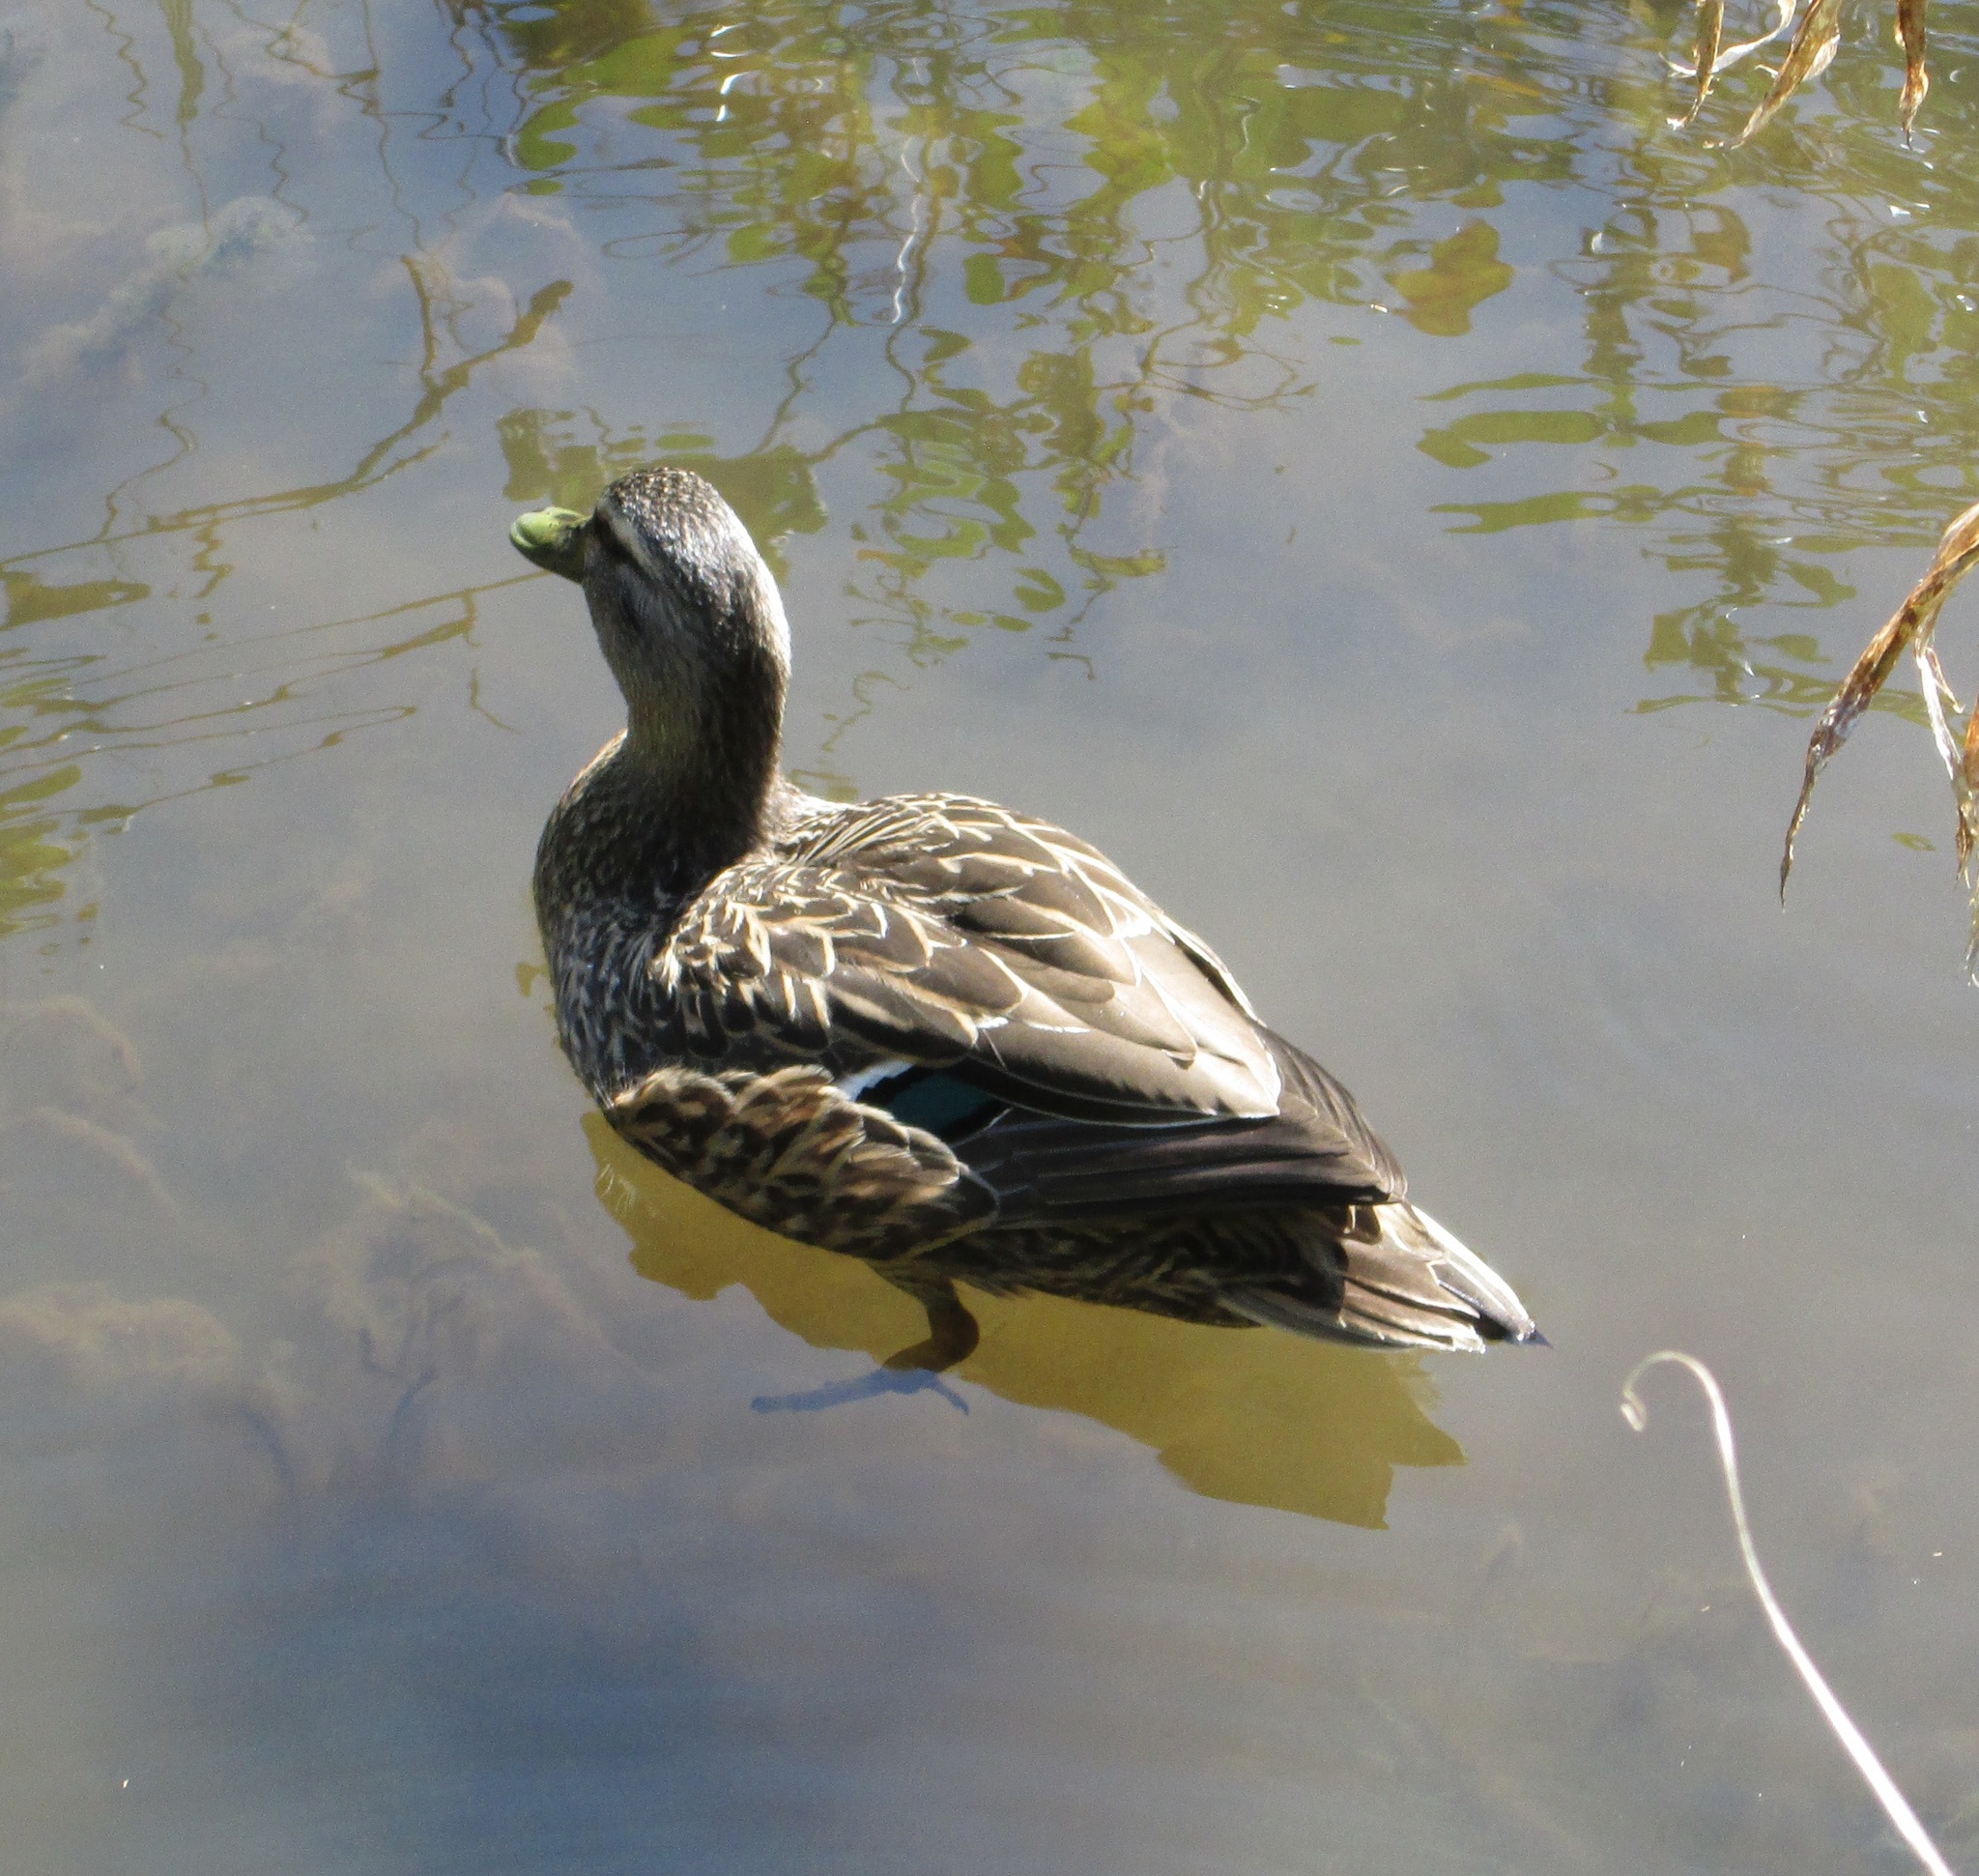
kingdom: Animalia
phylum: Chordata
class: Aves
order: Anseriformes
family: Anatidae
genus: Anas
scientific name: Anas
